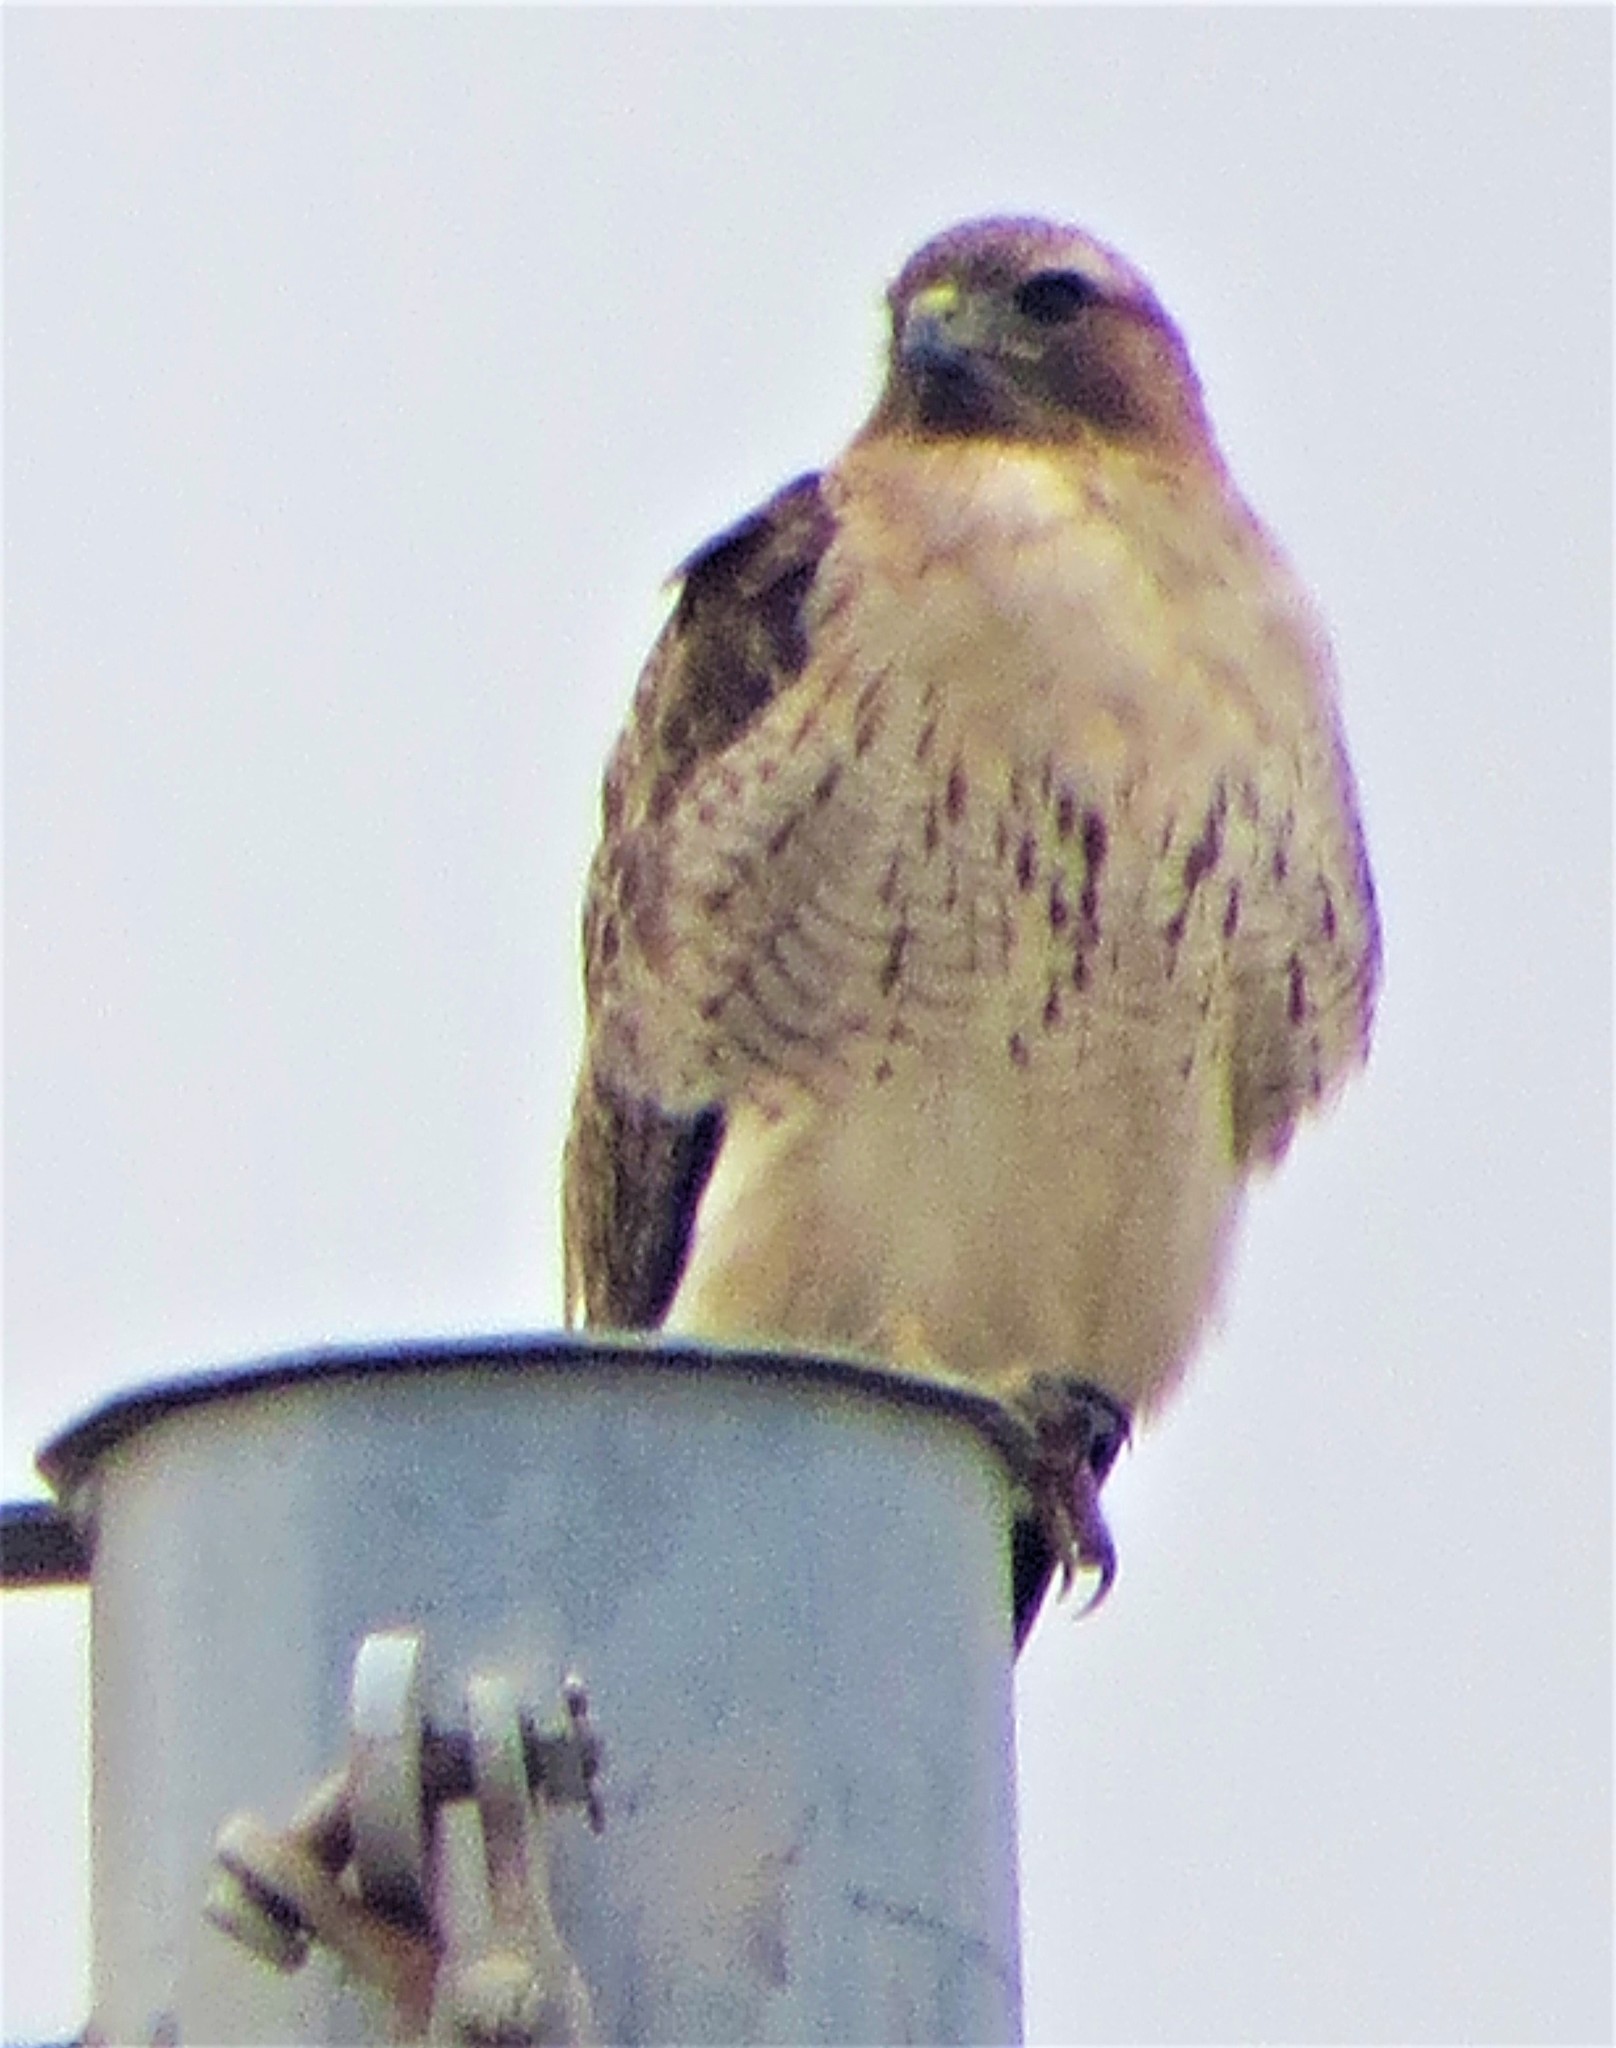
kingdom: Animalia
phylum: Chordata
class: Aves
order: Accipitriformes
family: Accipitridae
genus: Buteo
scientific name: Buteo jamaicensis
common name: Red-tailed hawk
